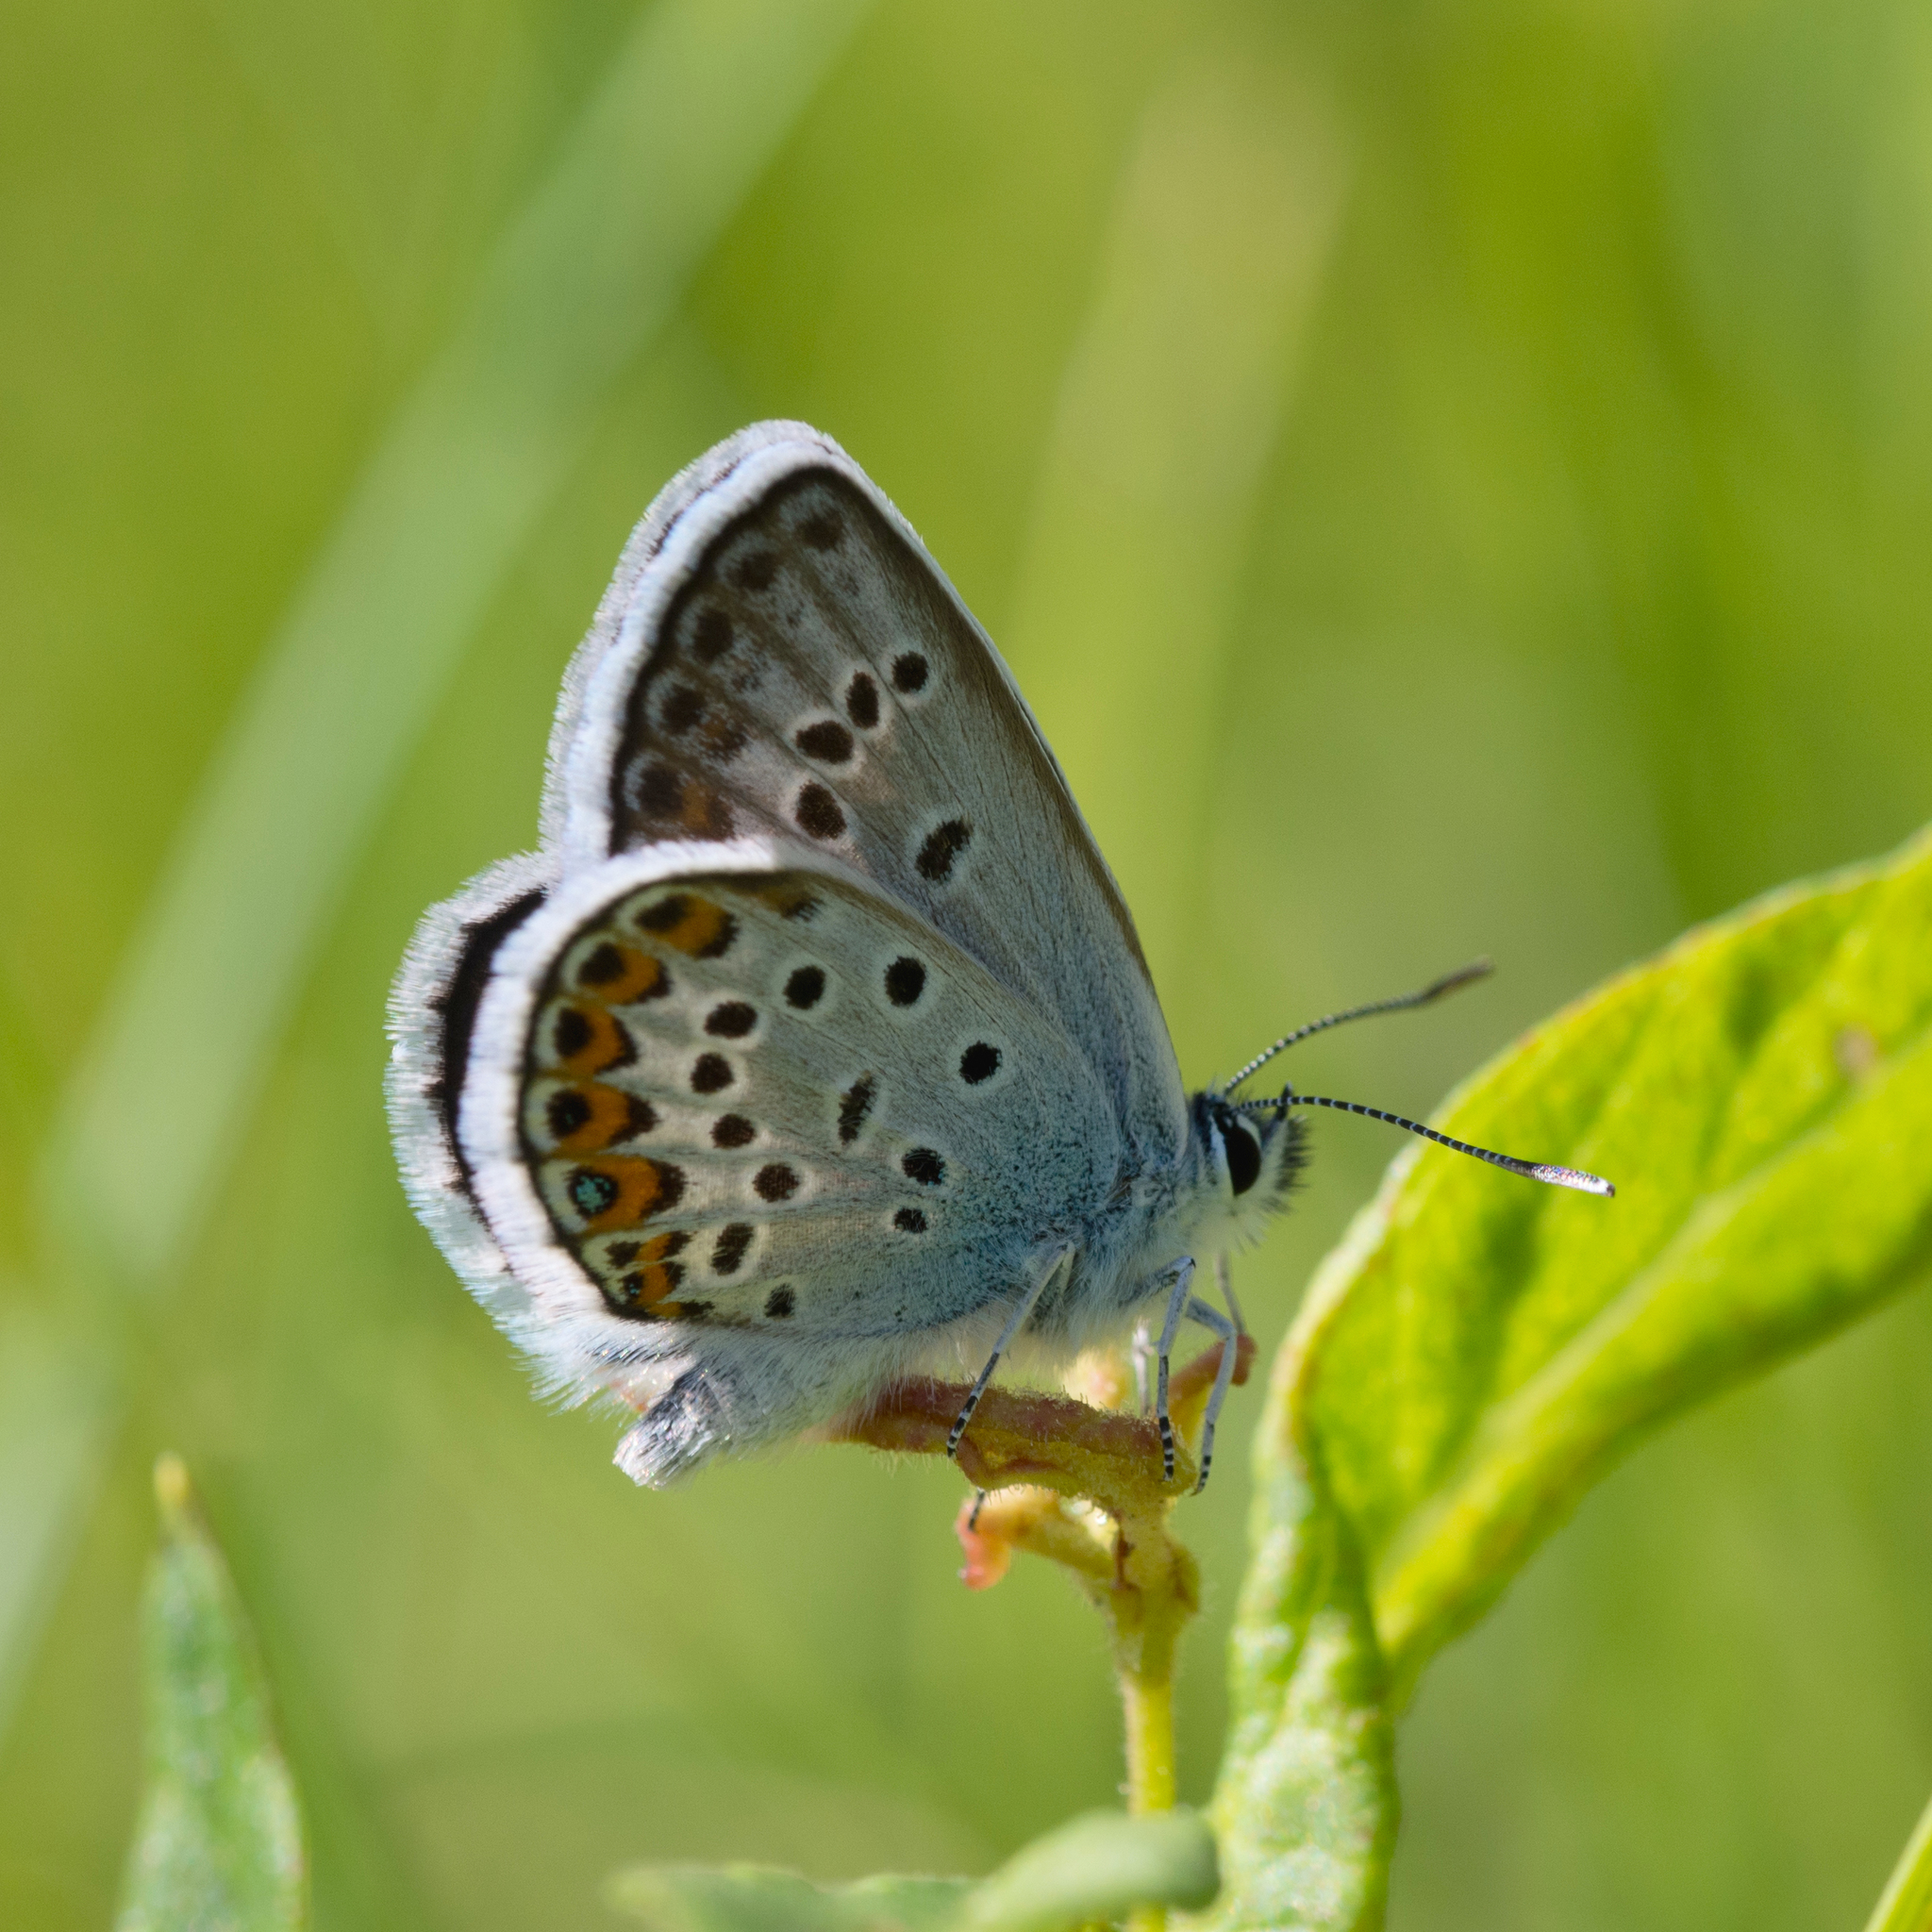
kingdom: Animalia
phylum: Arthropoda
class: Insecta
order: Lepidoptera
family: Lycaenidae
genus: Plebejus
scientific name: Plebejus argus
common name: Silver-studded blue
